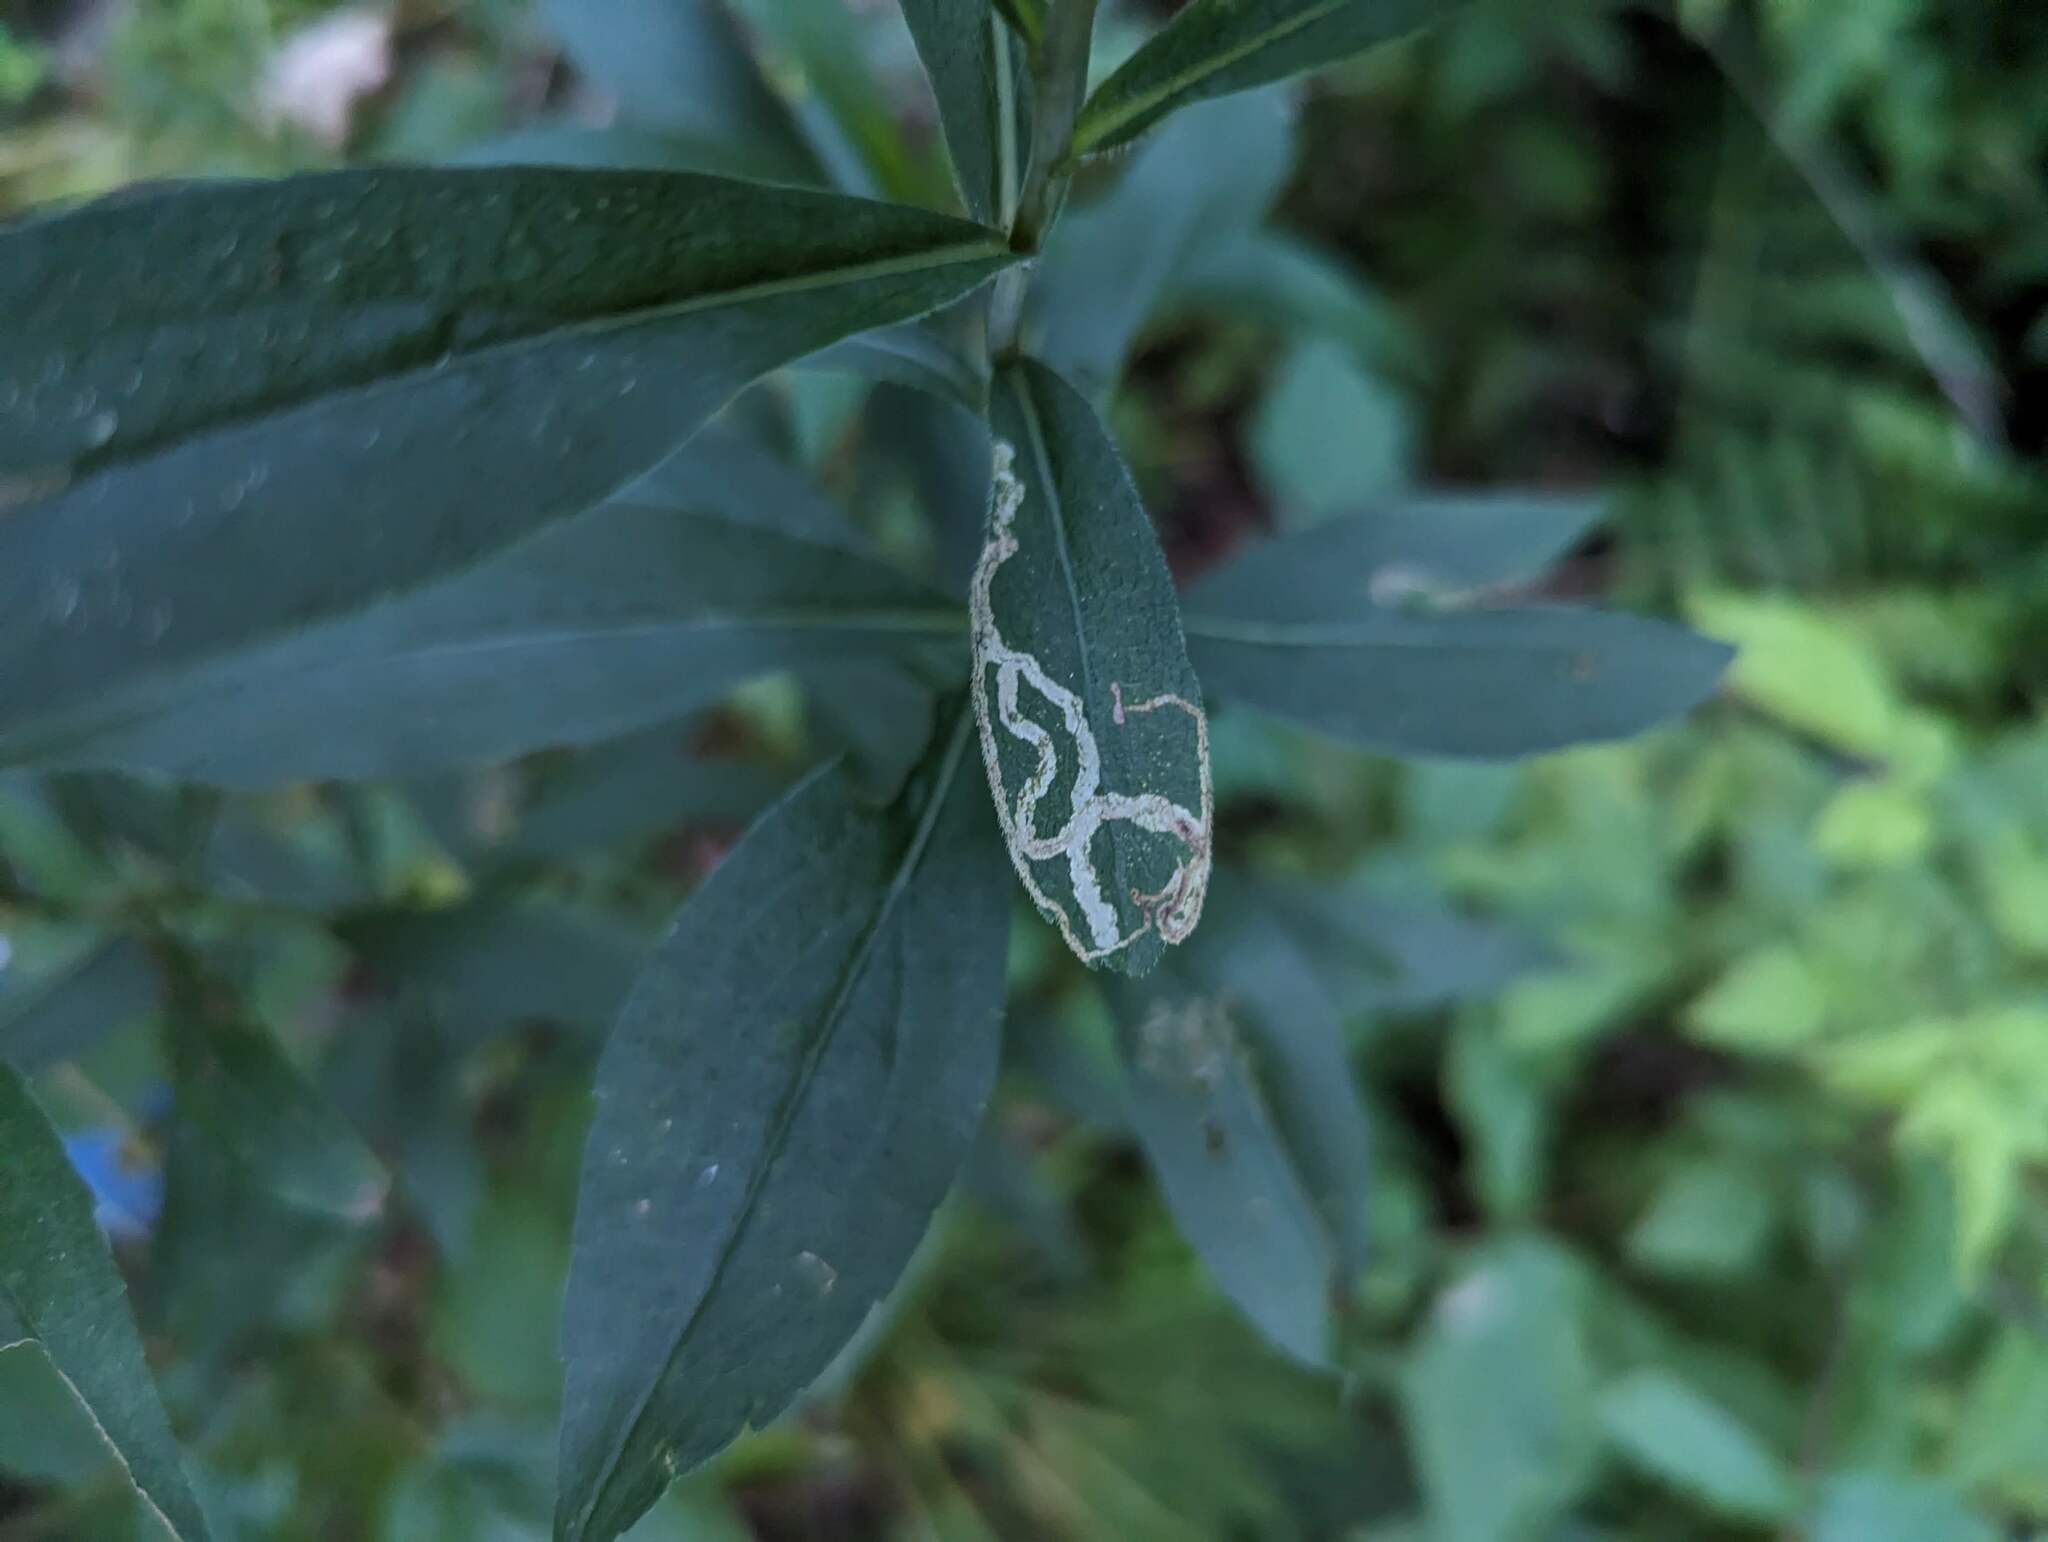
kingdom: Animalia
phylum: Arthropoda
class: Insecta
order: Diptera
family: Agromyzidae
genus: Liriomyza
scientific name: Liriomyza eupatorii
